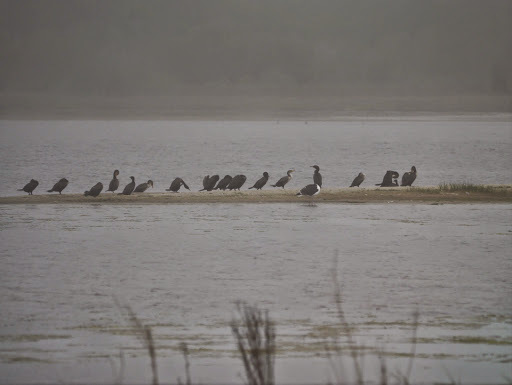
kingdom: Animalia
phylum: Chordata
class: Aves
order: Suliformes
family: Phalacrocoracidae
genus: Phalacrocorax
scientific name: Phalacrocorax auritus
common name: Double-crested cormorant
